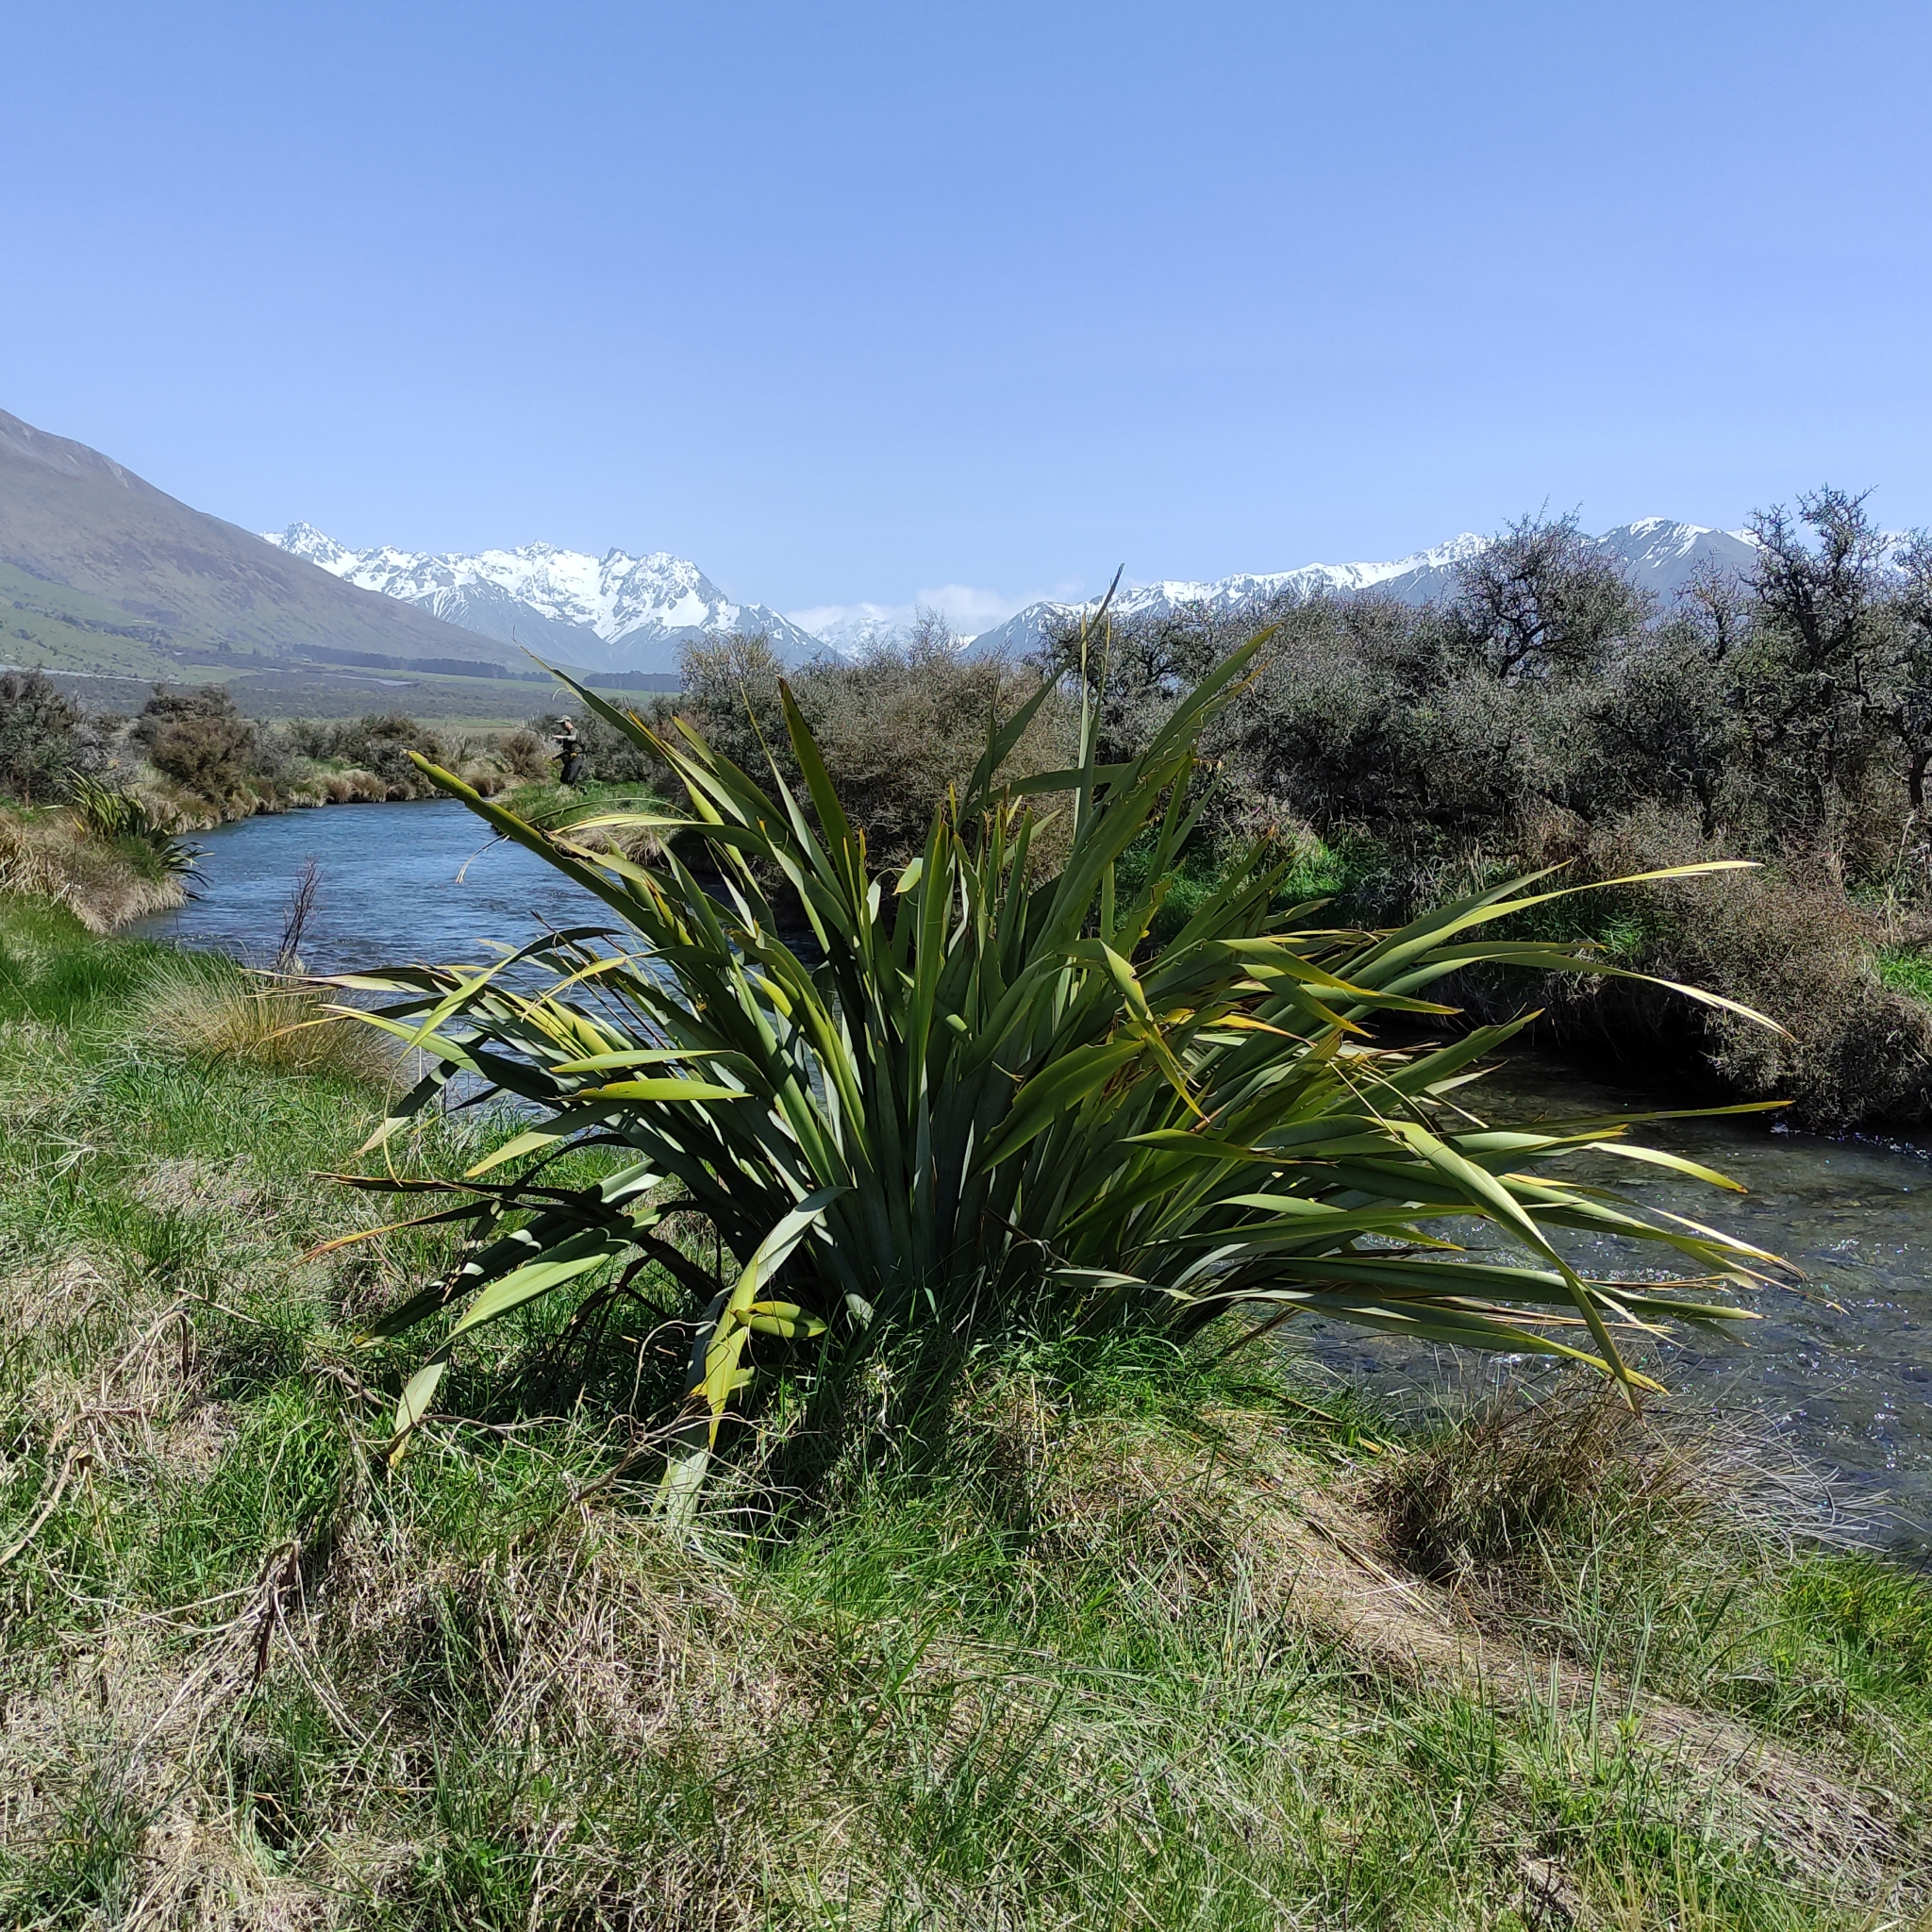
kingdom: Plantae
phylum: Tracheophyta
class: Liliopsida
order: Asparagales
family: Asphodelaceae
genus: Phormium
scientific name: Phormium tenax
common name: New zealand flax
